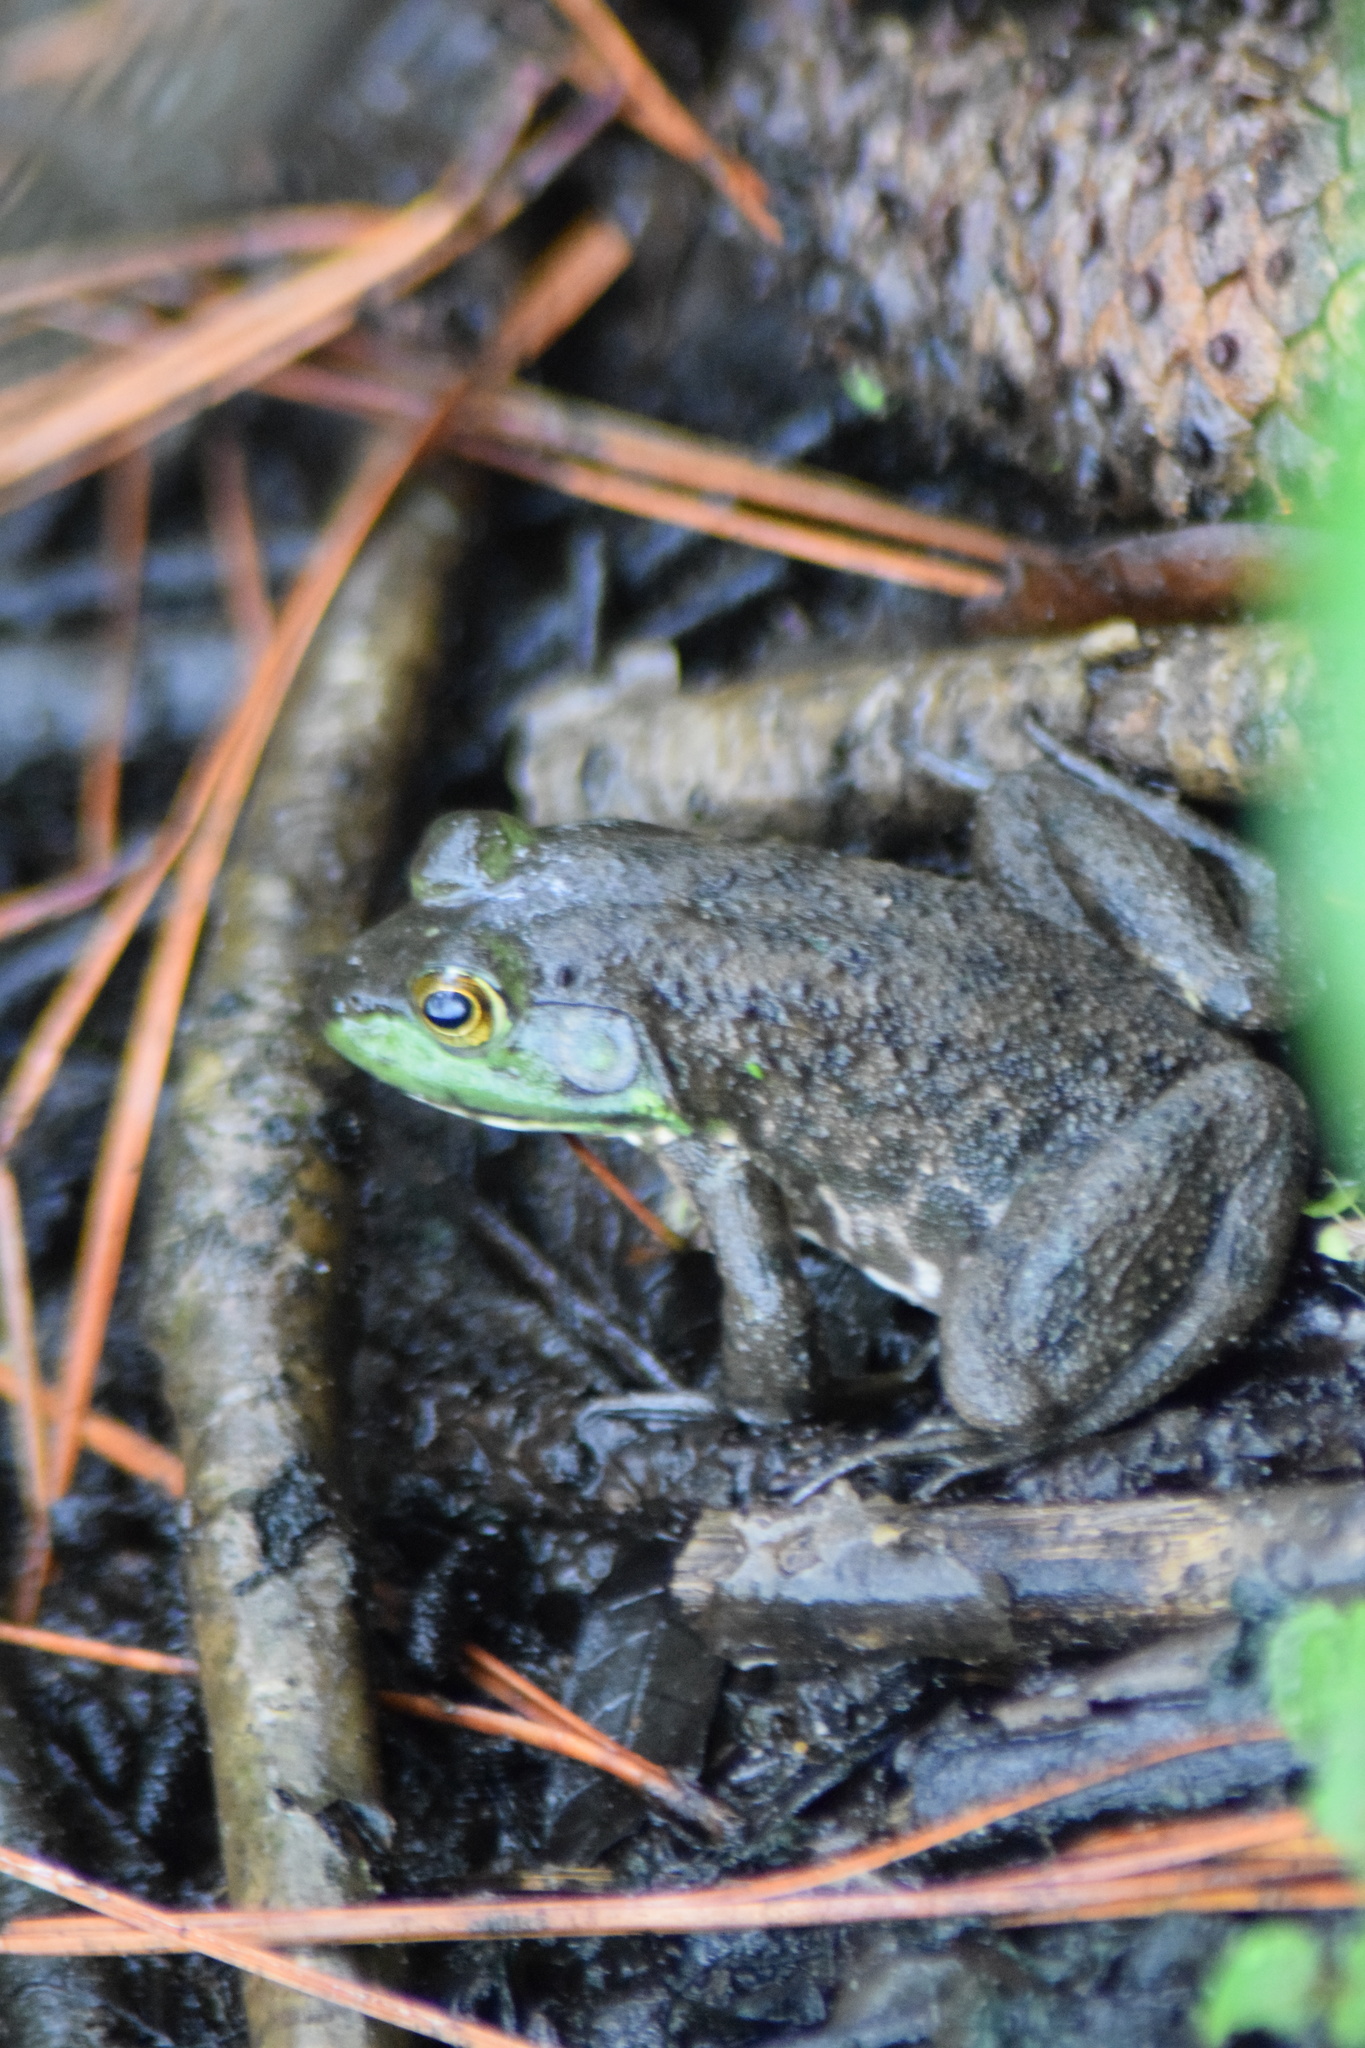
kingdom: Animalia
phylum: Chordata
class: Amphibia
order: Anura
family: Ranidae
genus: Lithobates
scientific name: Lithobates catesbeianus
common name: American bullfrog
